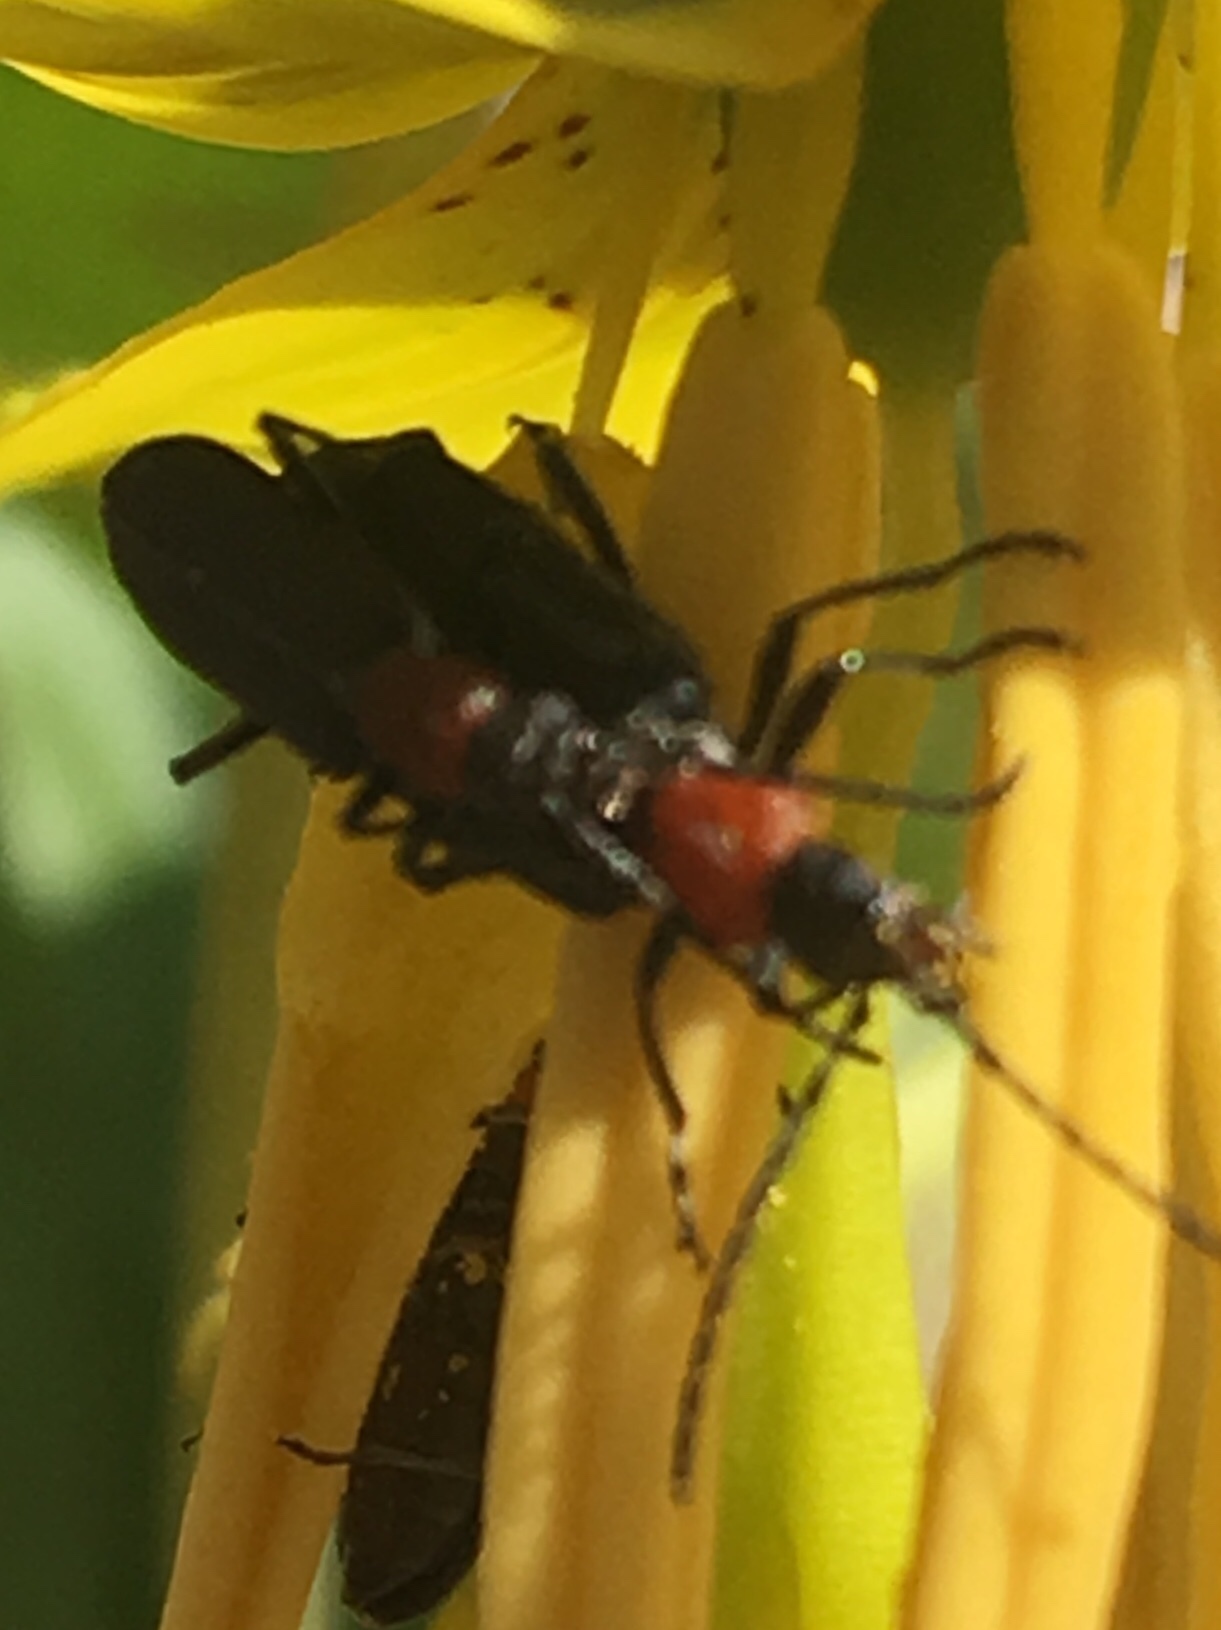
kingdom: Animalia
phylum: Arthropoda
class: Insecta
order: Coleoptera
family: Oedemeridae
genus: Ischnomera
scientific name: Ischnomera
